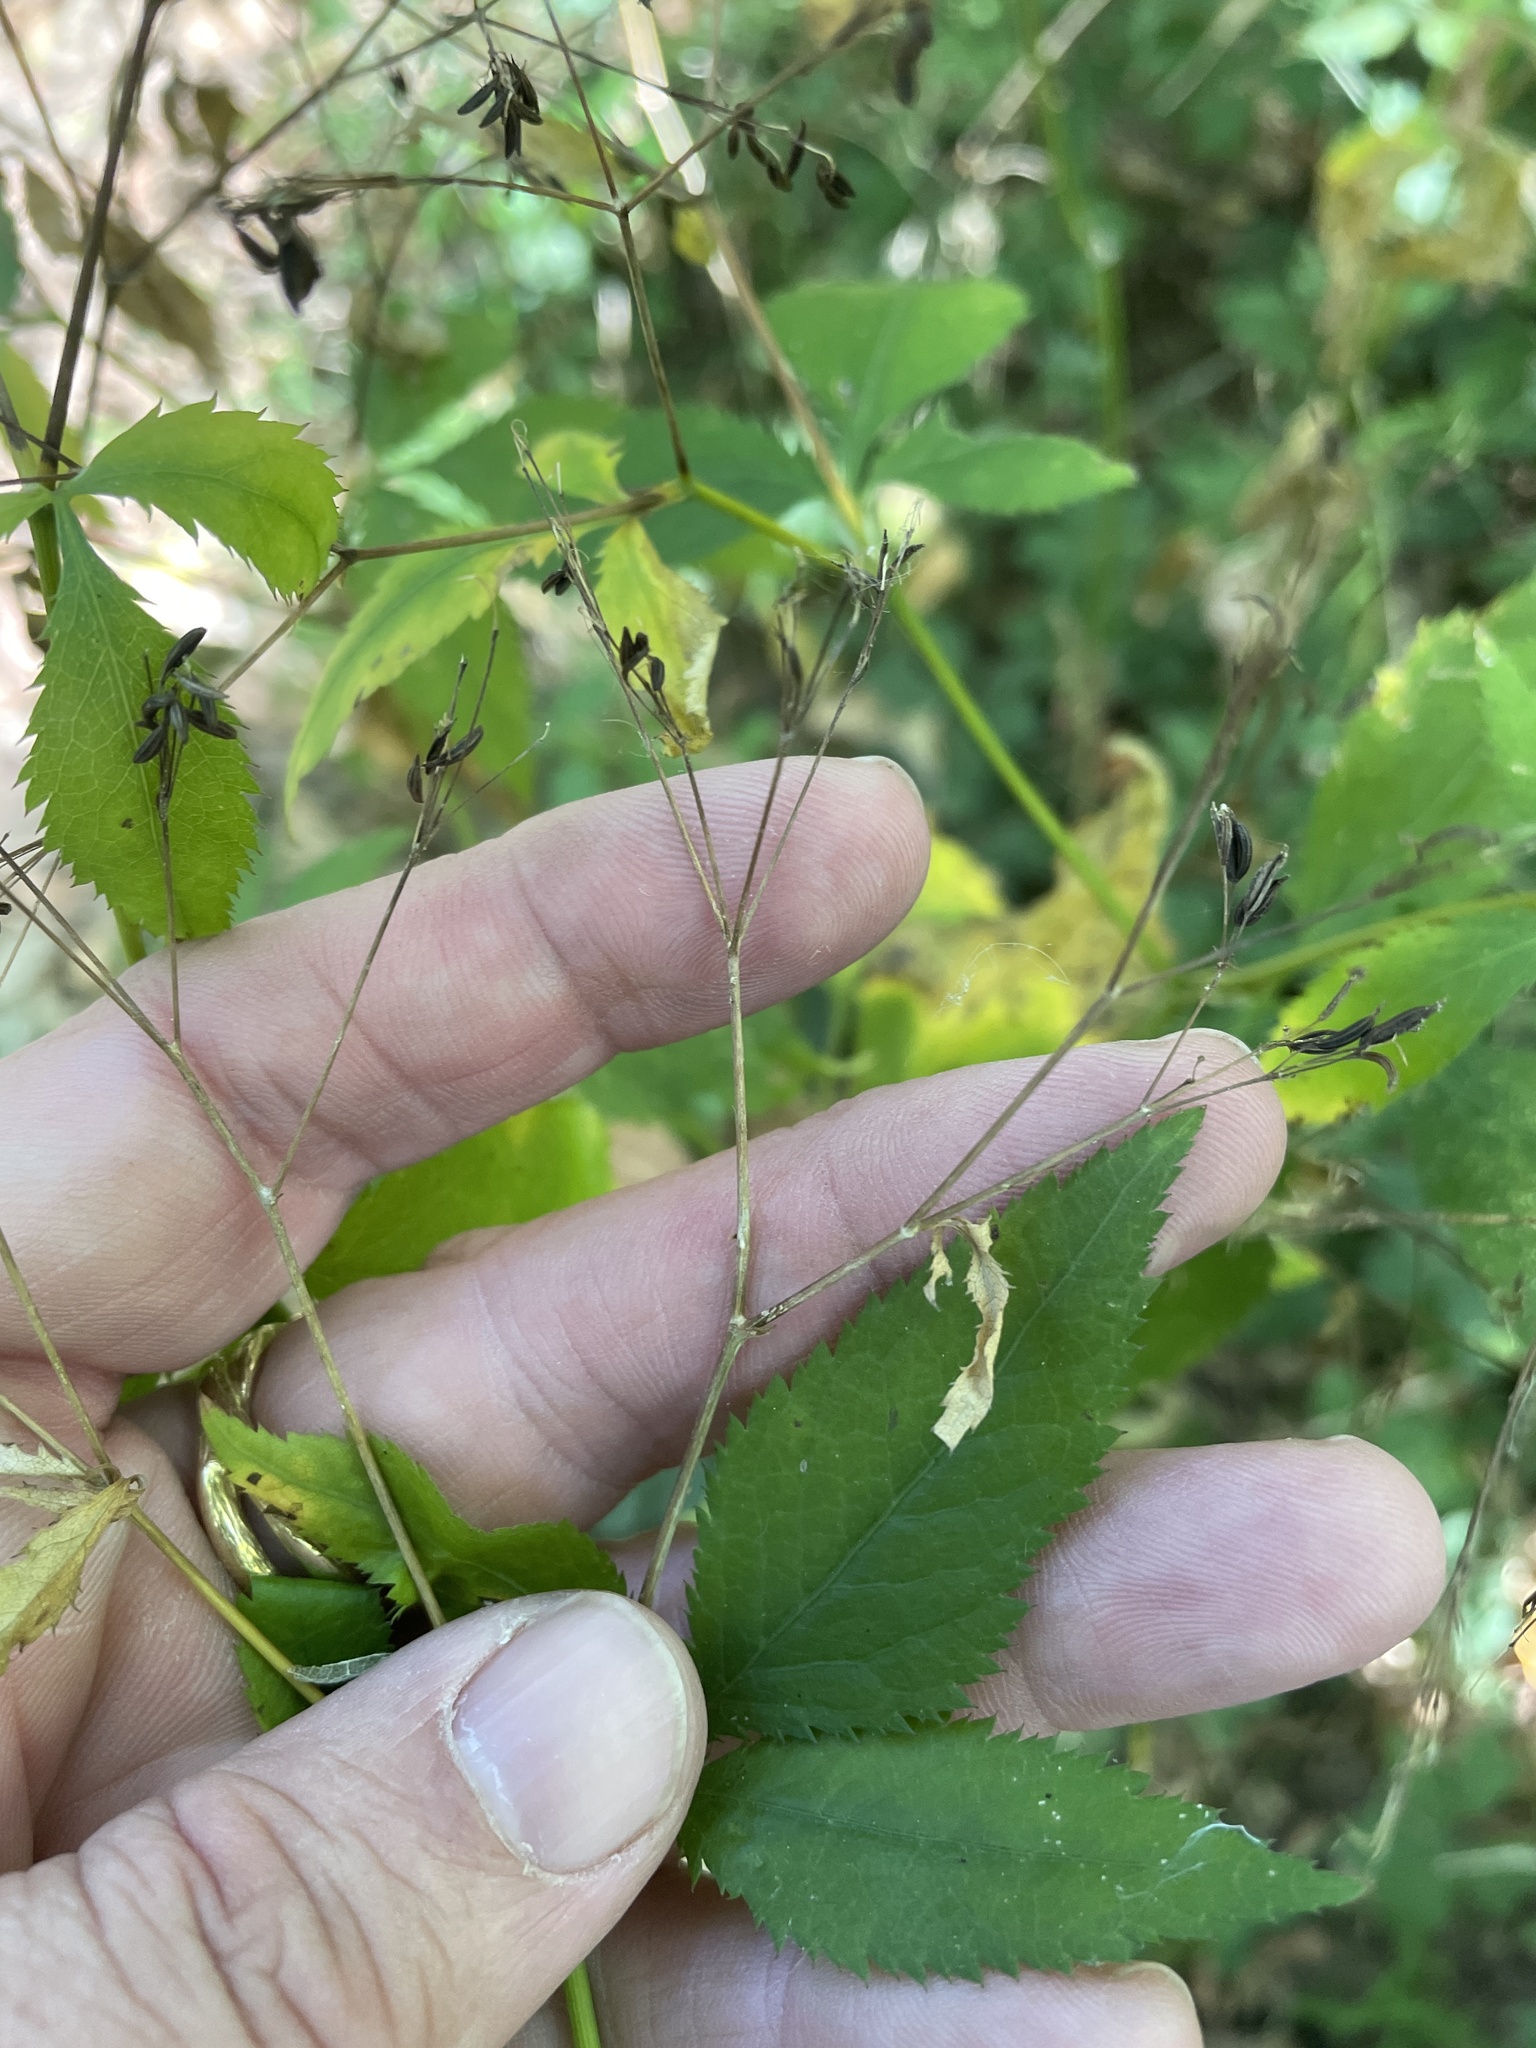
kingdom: Plantae
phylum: Tracheophyta
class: Magnoliopsida
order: Apiales
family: Apiaceae
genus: Cryptotaenia
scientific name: Cryptotaenia canadensis
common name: Honewort
